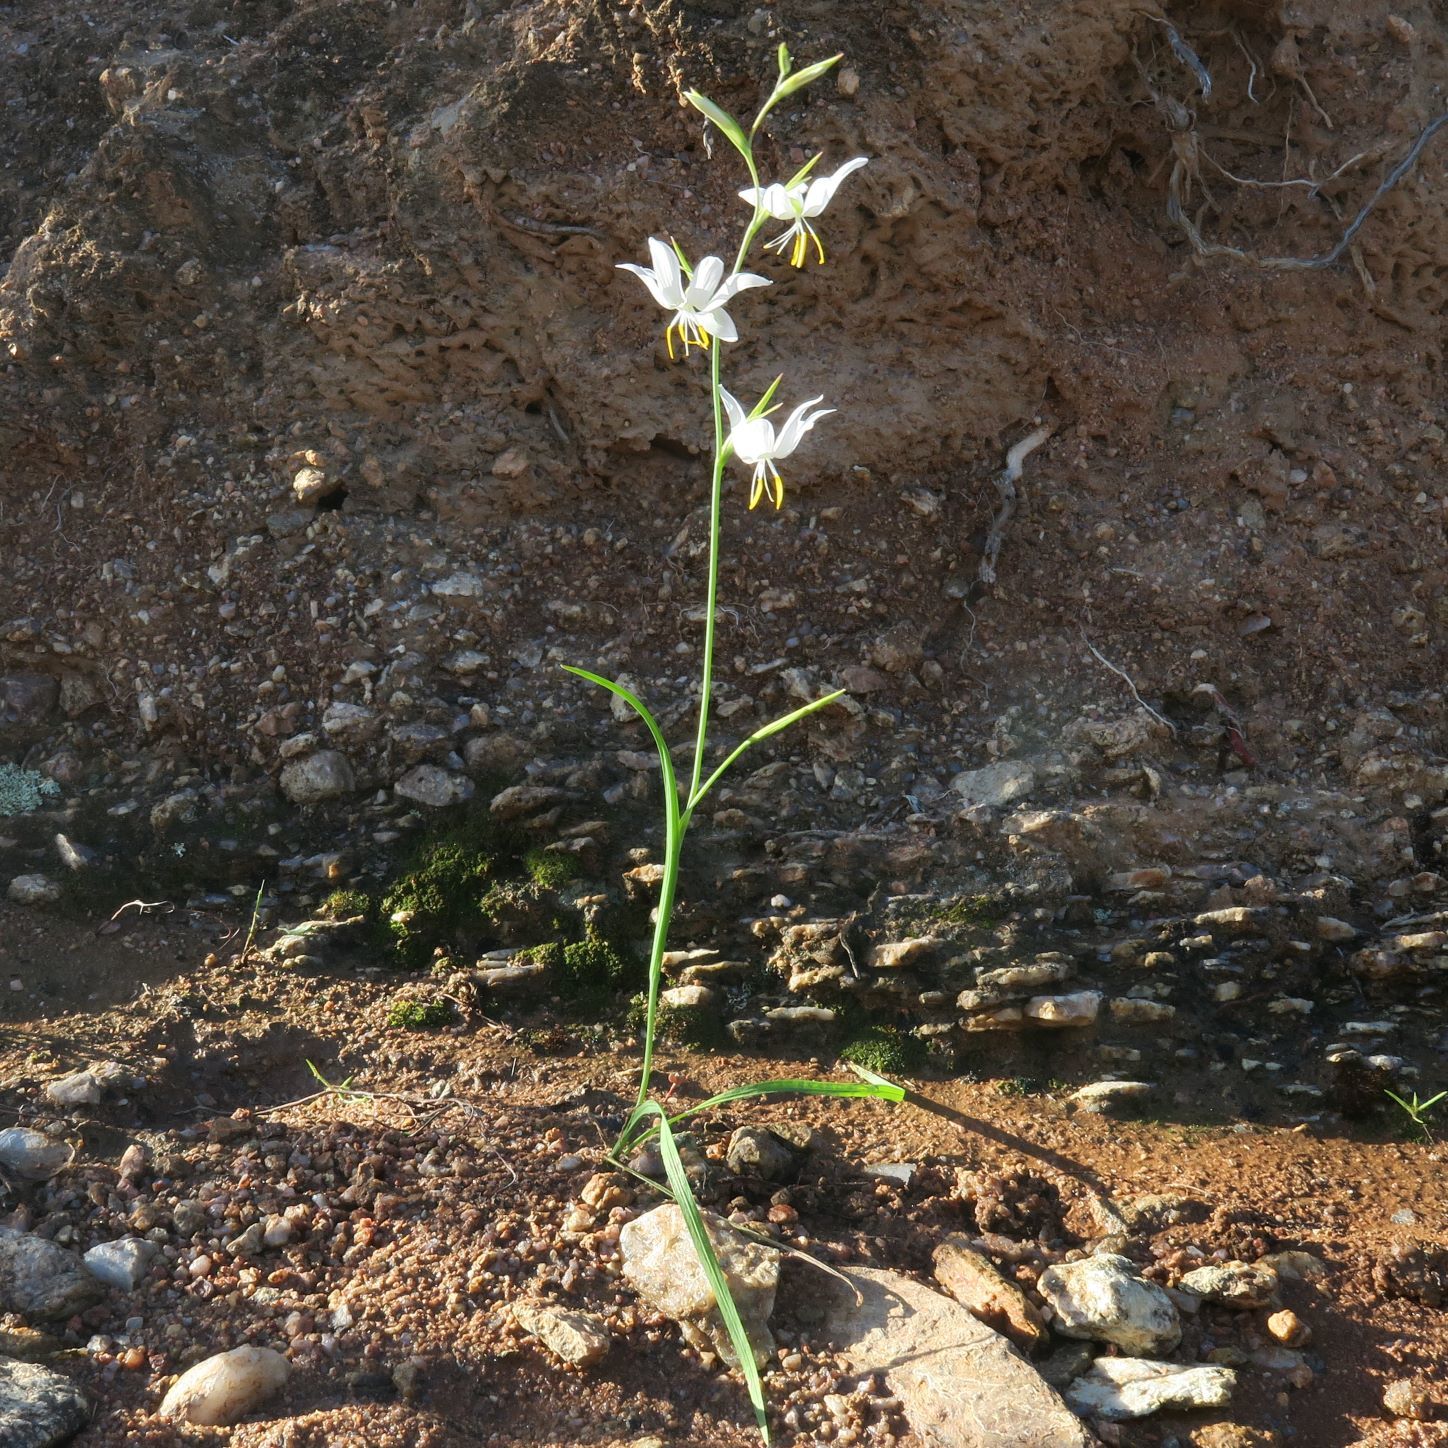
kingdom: Plantae
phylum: Tracheophyta
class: Liliopsida
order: Asparagales
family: Iridaceae
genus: Hesperantha
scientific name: Hesperantha bachmannii
